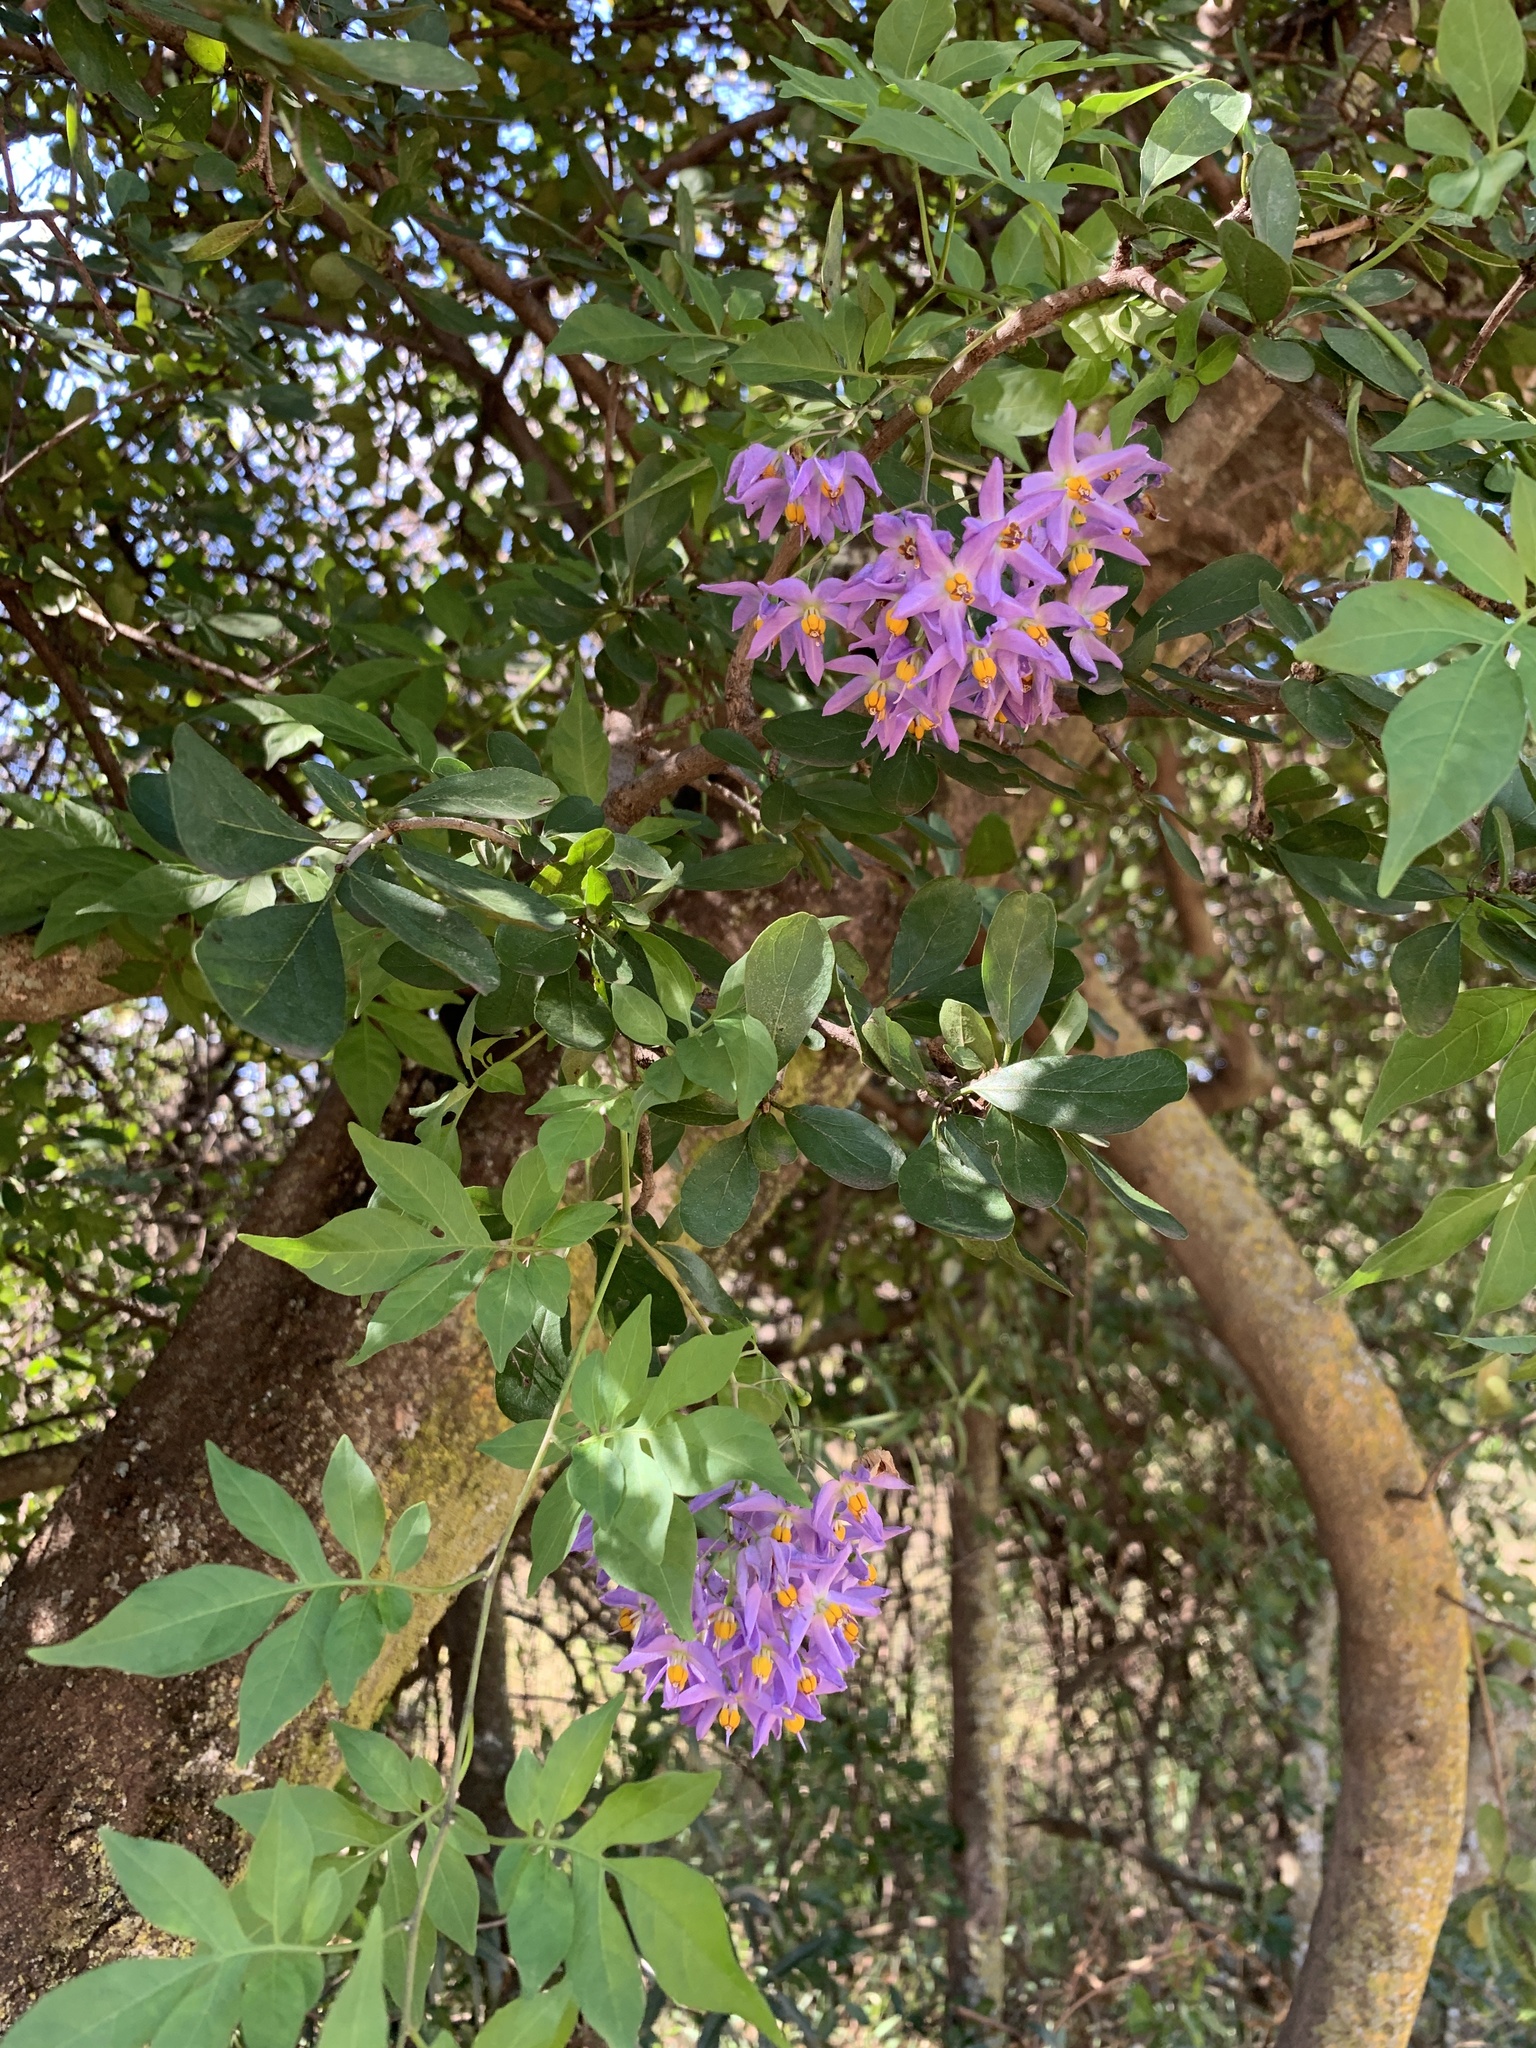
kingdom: Plantae
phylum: Tracheophyta
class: Magnoliopsida
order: Solanales
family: Solanaceae
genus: Solanum
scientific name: Solanum seaforthianum
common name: Brazilian nightshade
